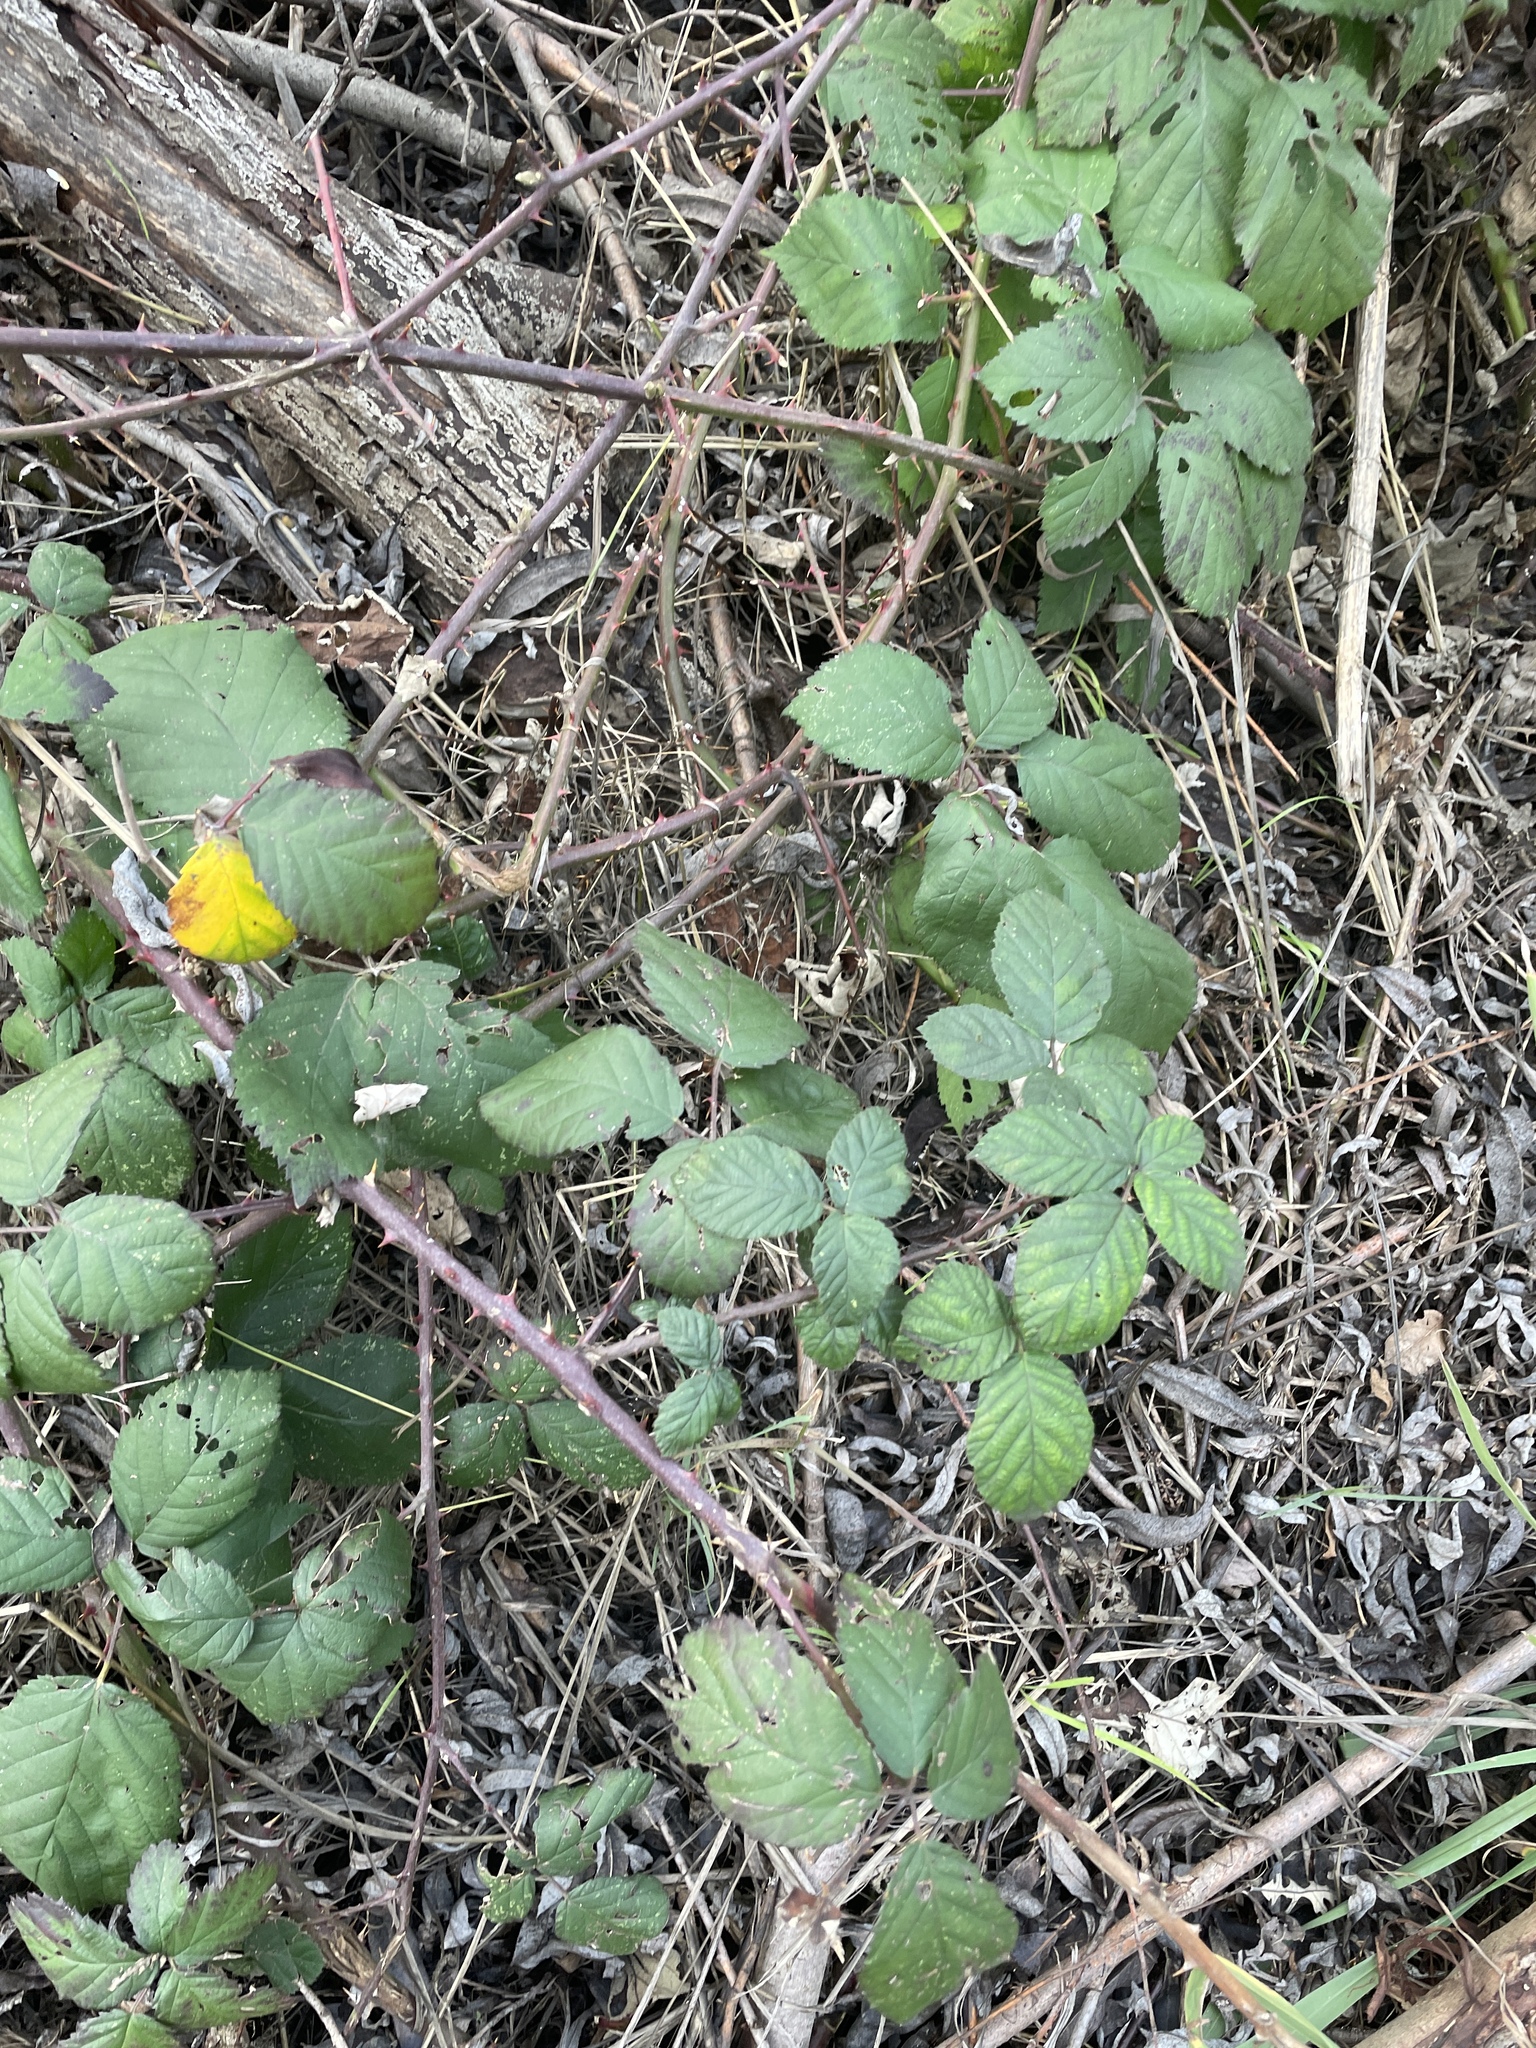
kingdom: Plantae
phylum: Tracheophyta
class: Magnoliopsida
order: Rosales
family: Rosaceae
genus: Rubus
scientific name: Rubus armeniacus
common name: Himalayan blackberry
